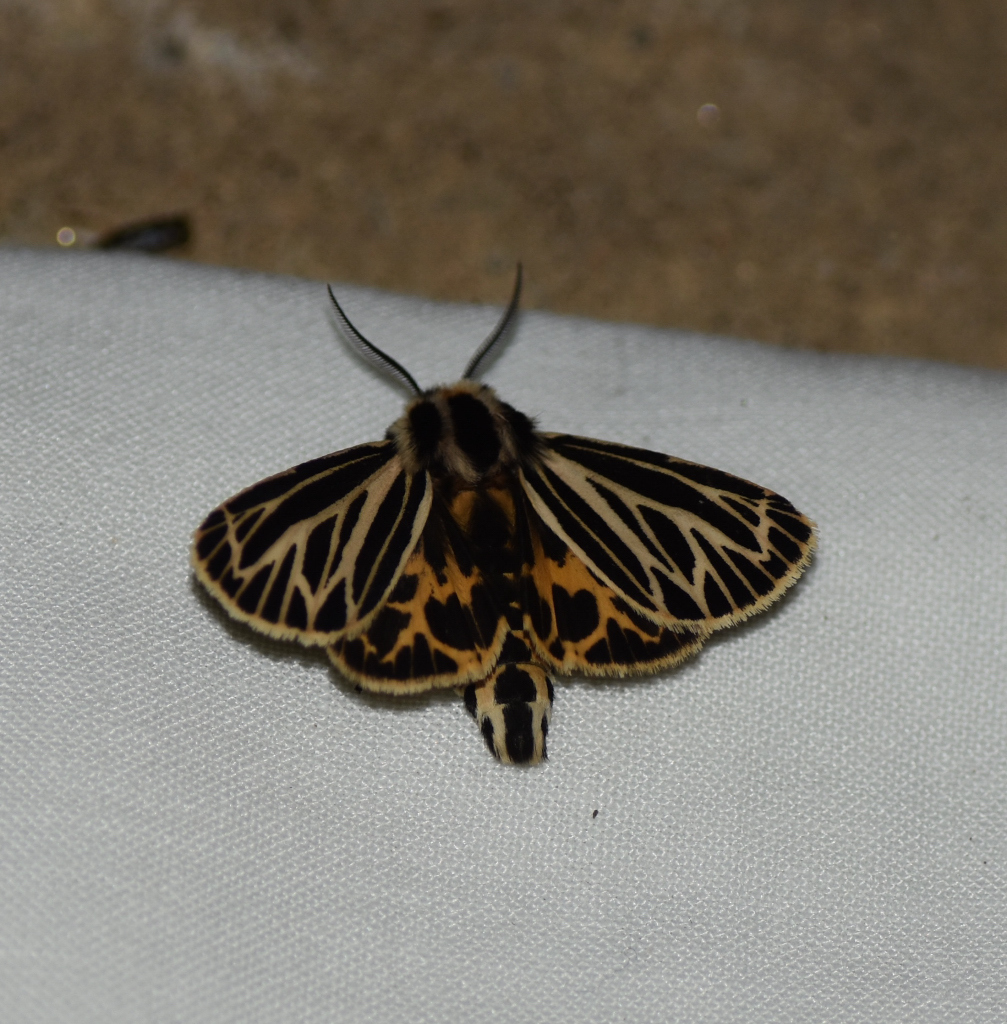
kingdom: Animalia
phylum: Arthropoda
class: Insecta
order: Lepidoptera
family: Erebidae
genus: Grammia
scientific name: Grammia virguncula
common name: Little tiger moth
